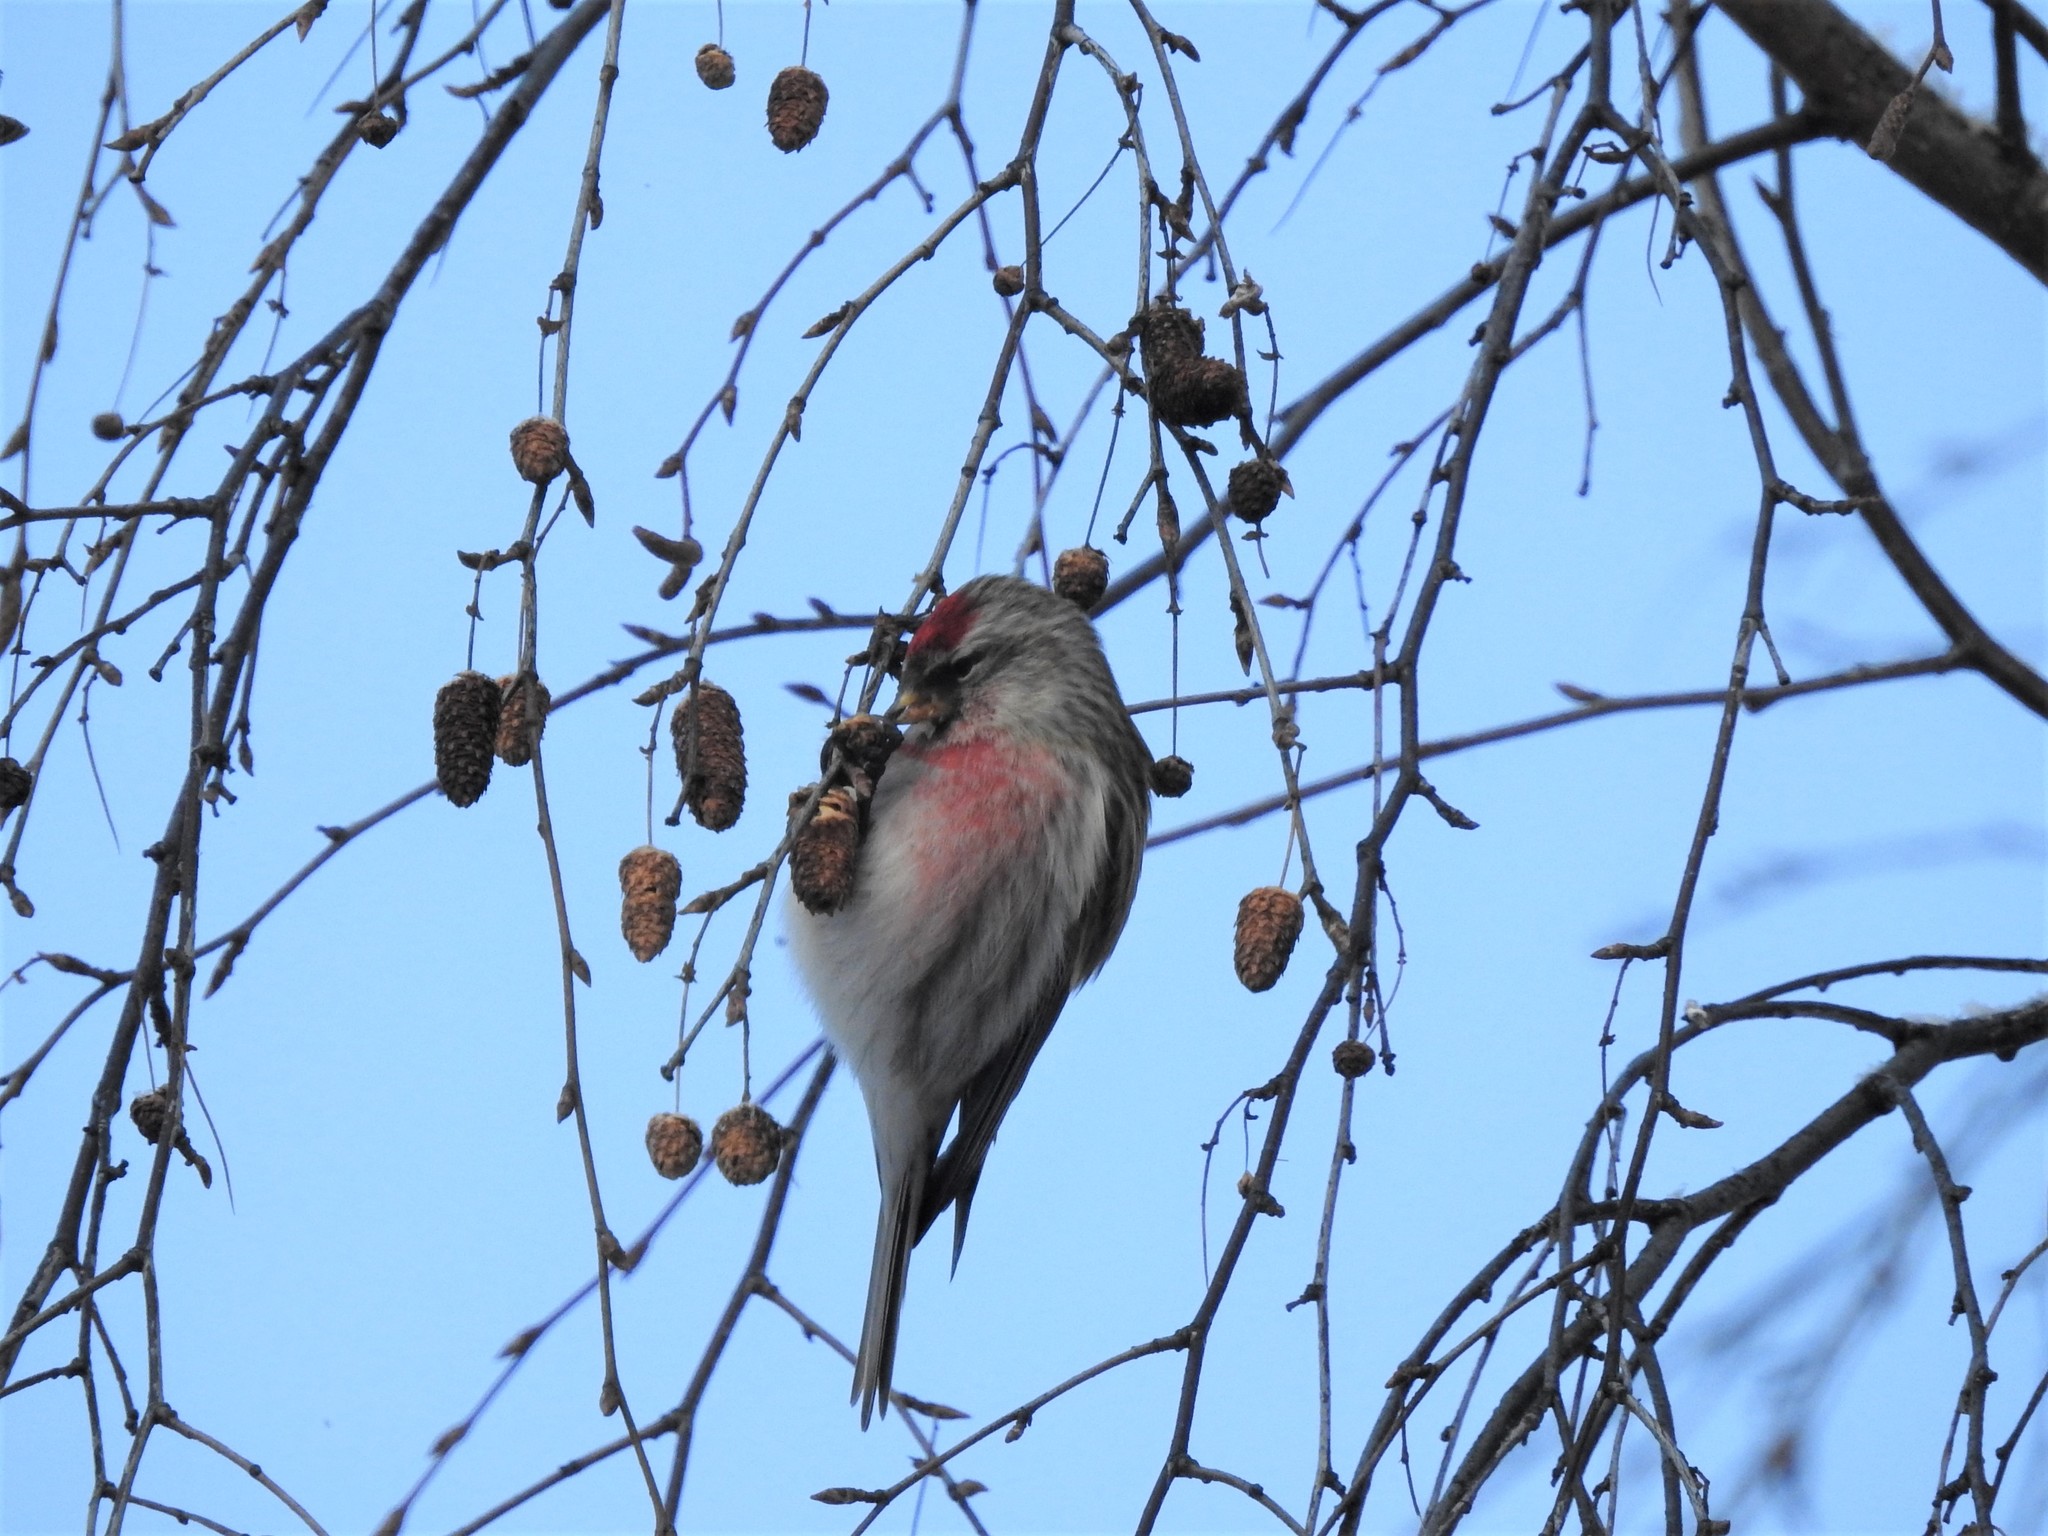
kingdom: Animalia
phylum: Chordata
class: Aves
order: Passeriformes
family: Fringillidae
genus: Acanthis
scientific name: Acanthis flammea
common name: Common redpoll
